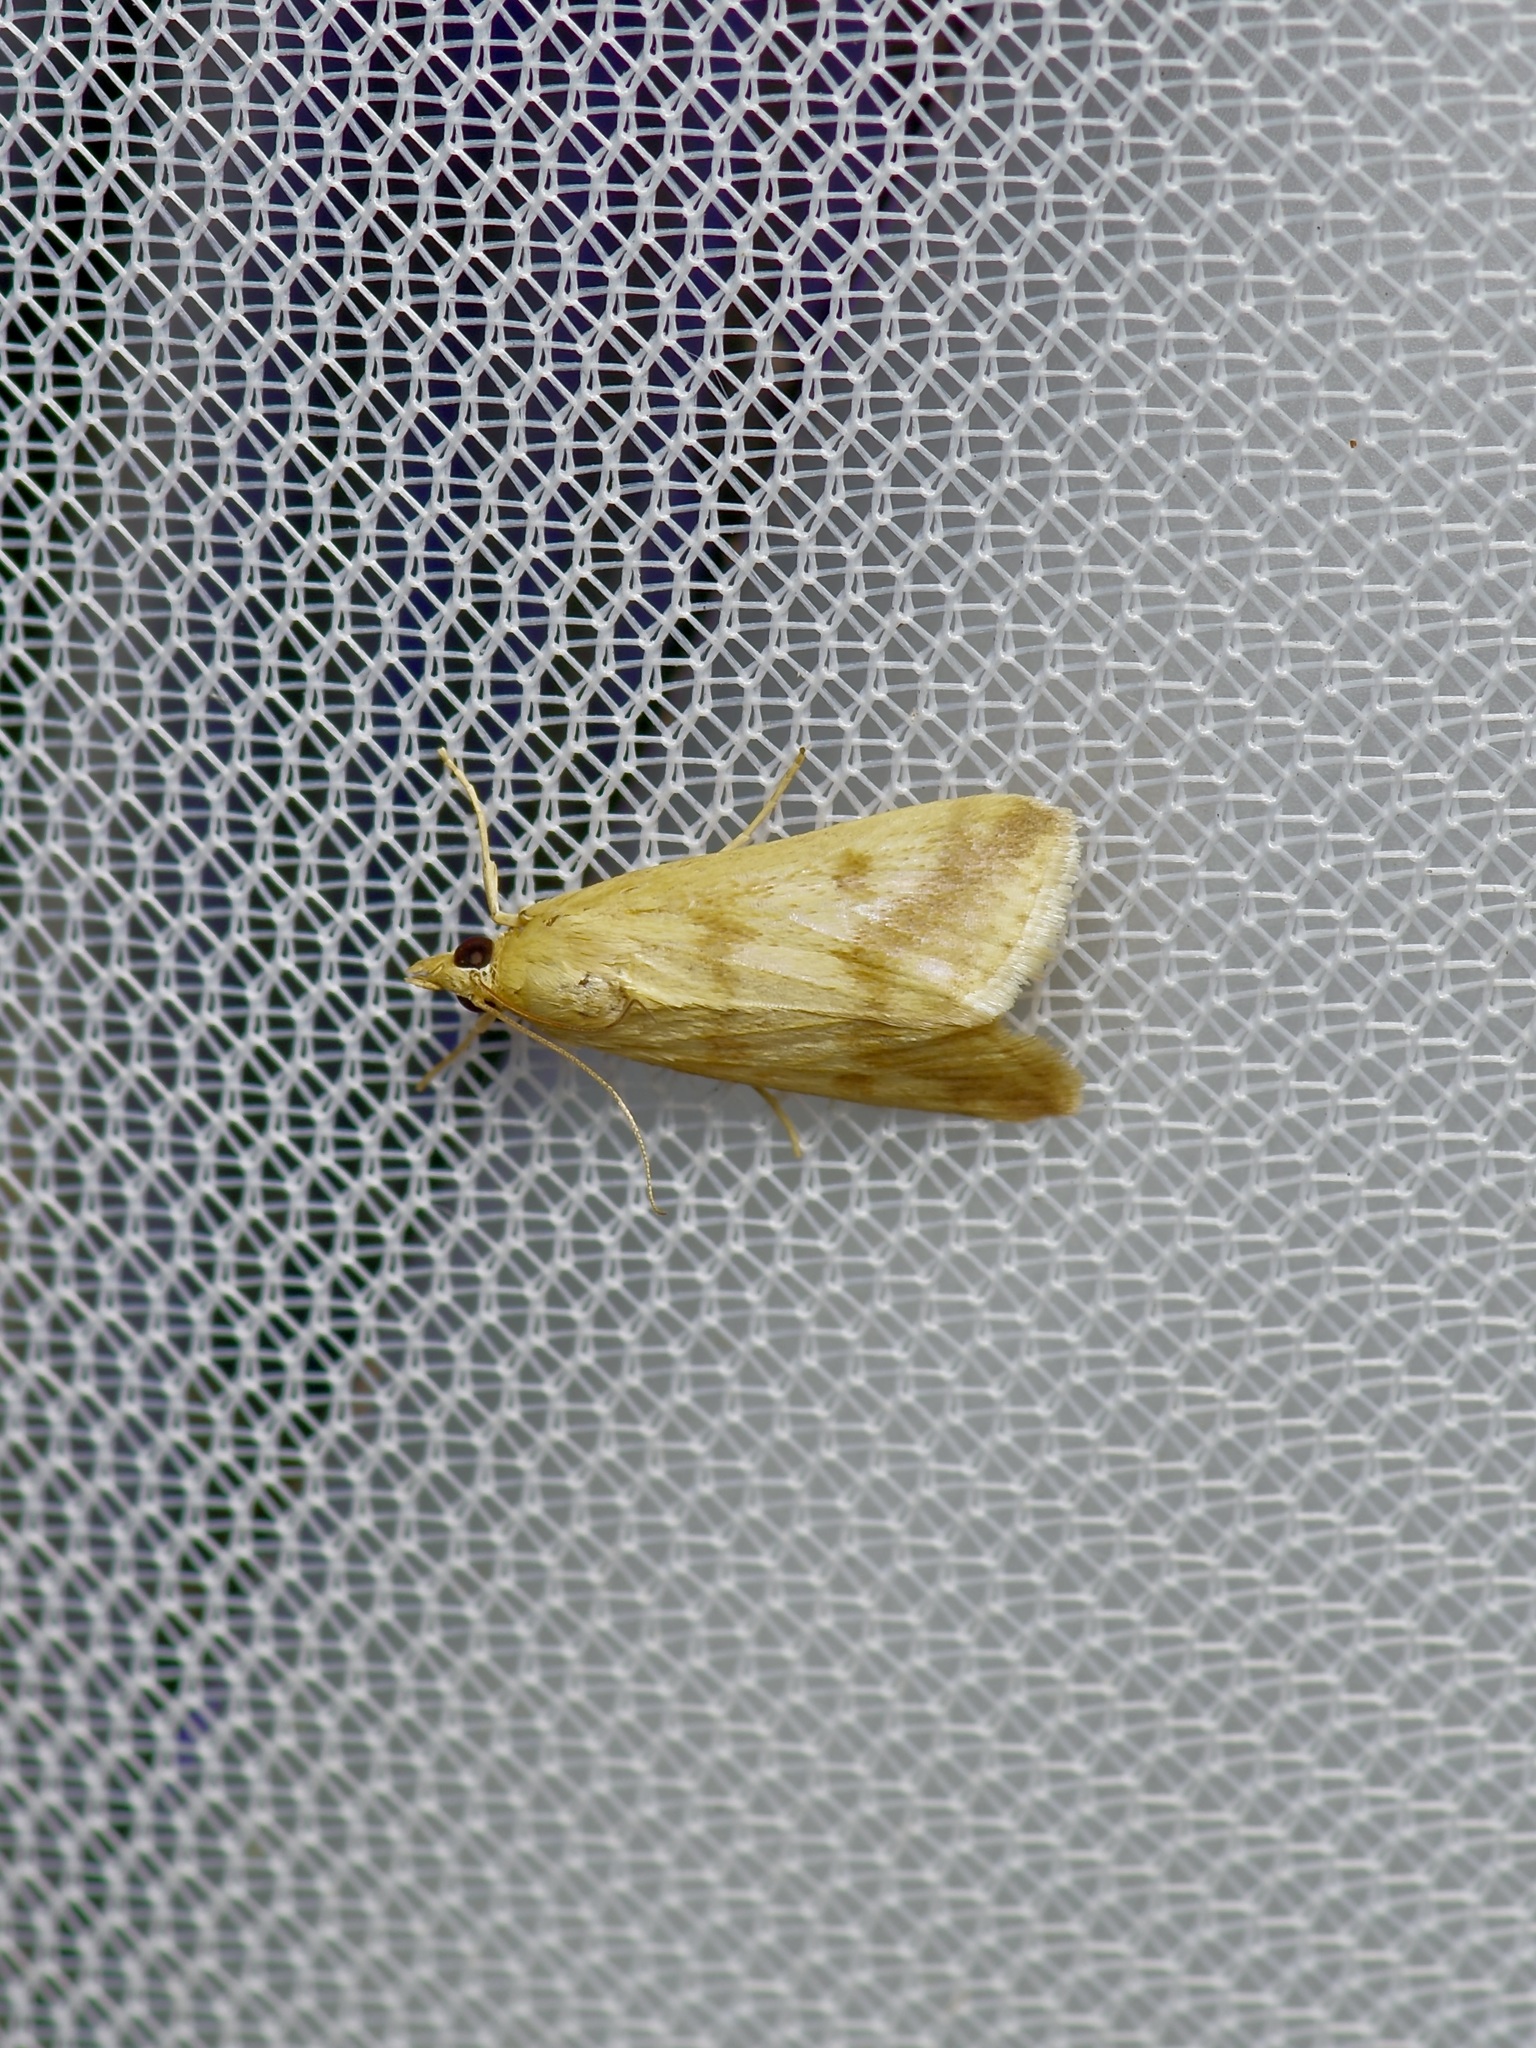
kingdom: Animalia
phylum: Arthropoda
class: Insecta
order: Lepidoptera
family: Crambidae
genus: Achyra
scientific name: Achyra bifidalis
